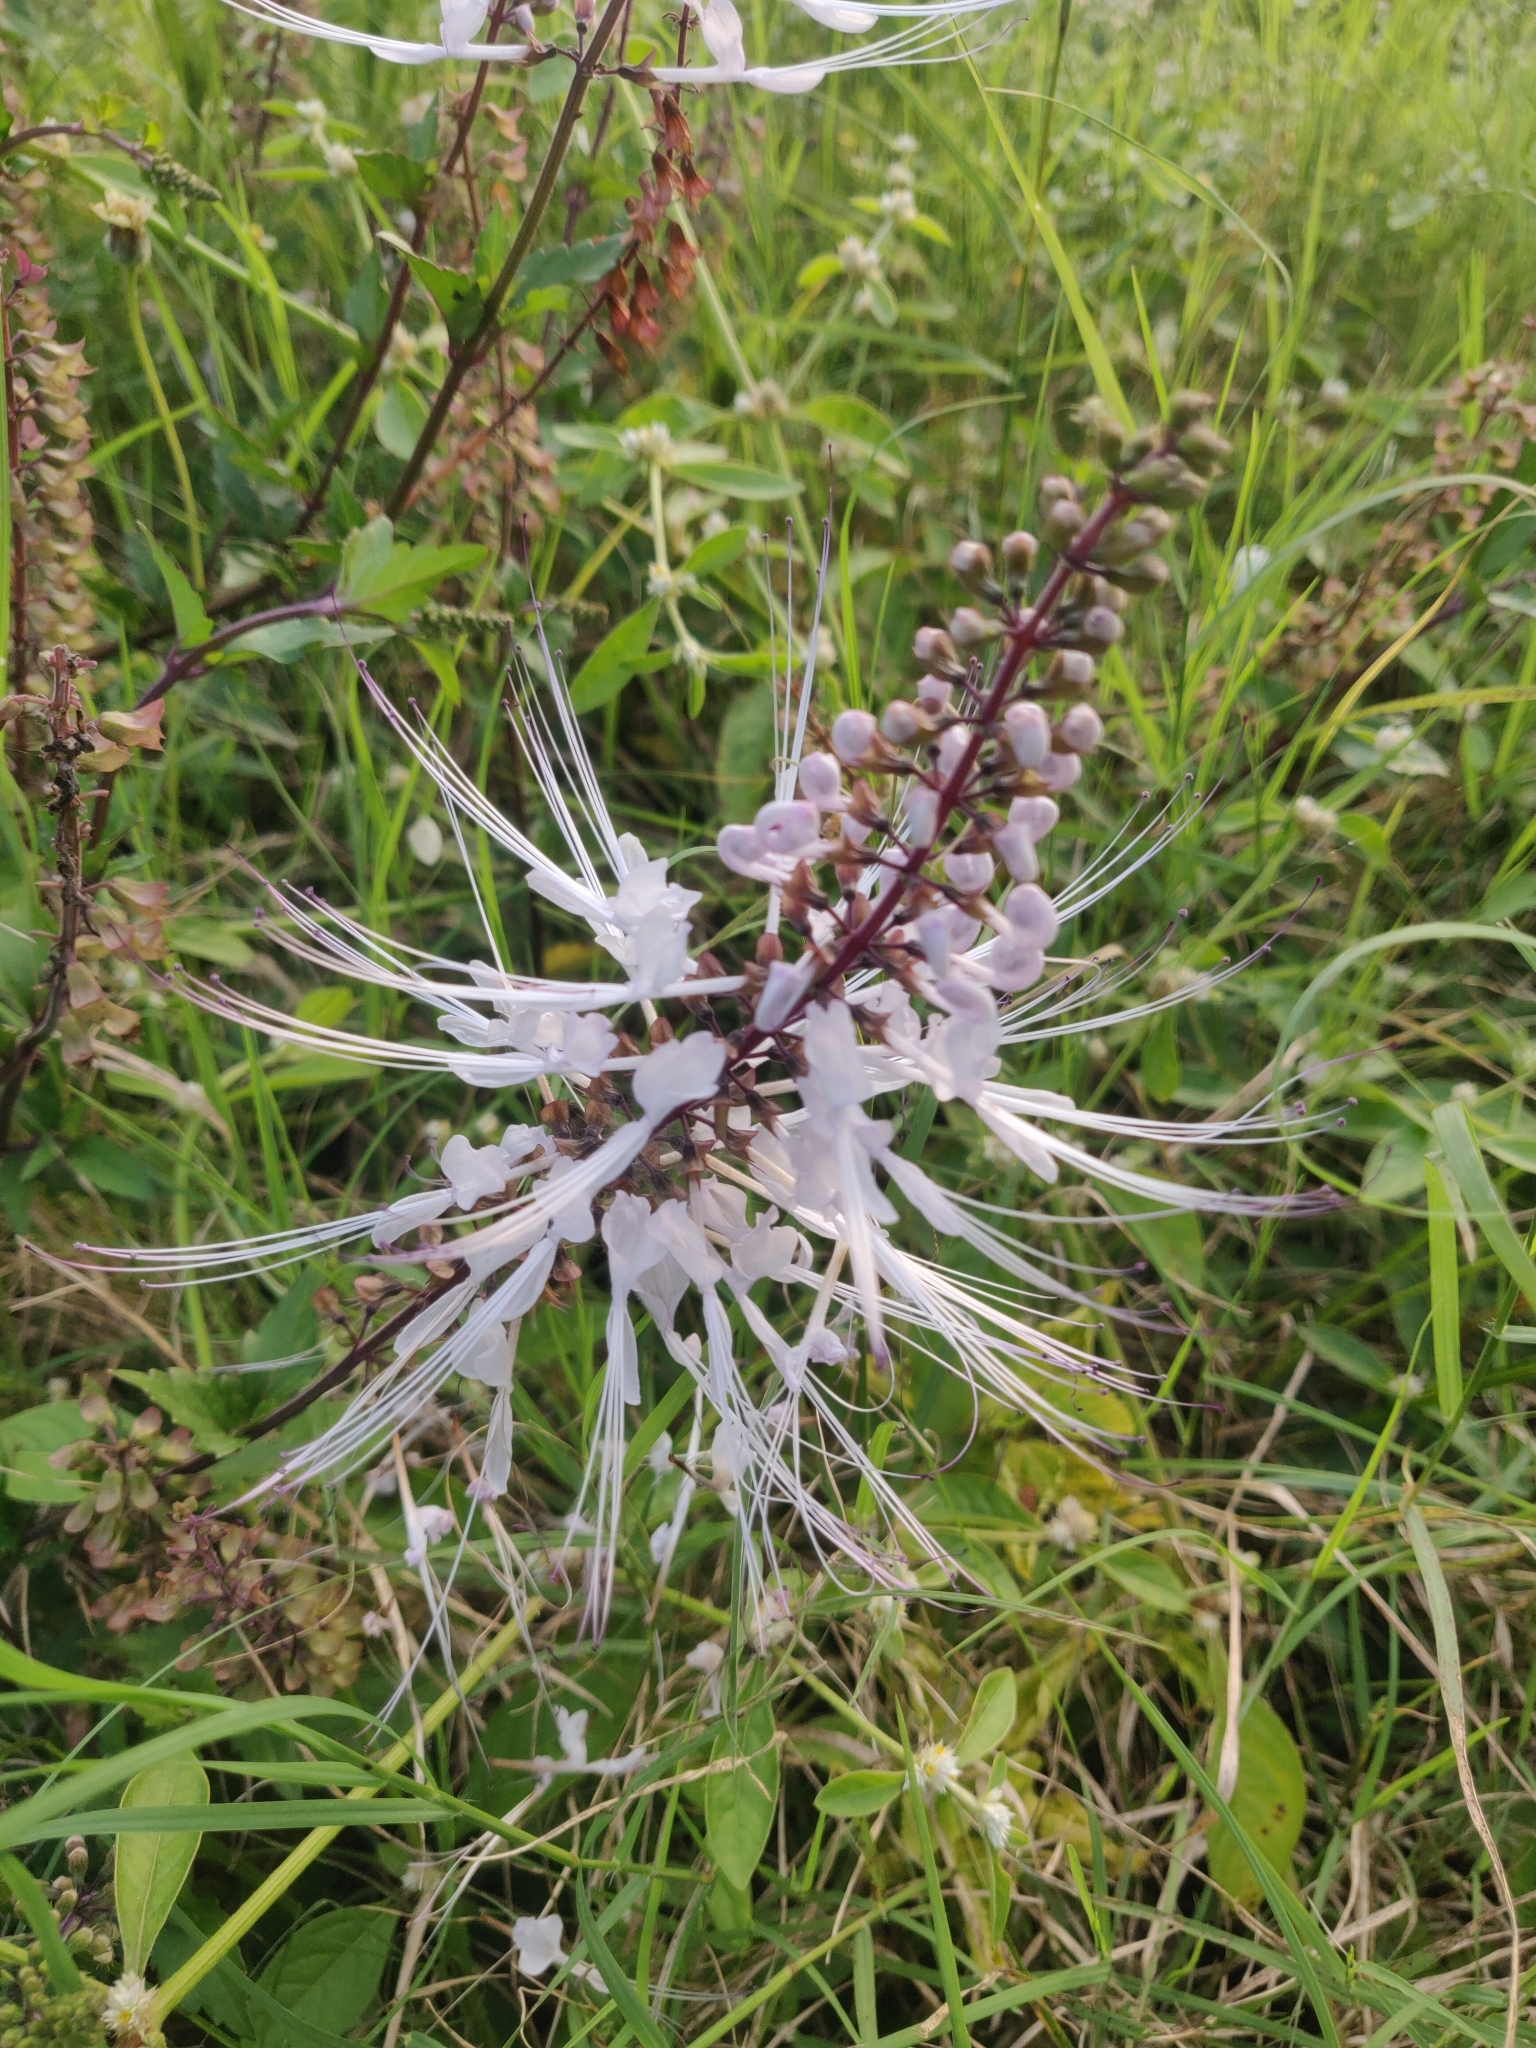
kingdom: Plantae
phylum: Tracheophyta
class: Magnoliopsida
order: Lamiales
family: Lamiaceae
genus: Orthosiphon
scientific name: Orthosiphon aristatus
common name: Whiskerplant
